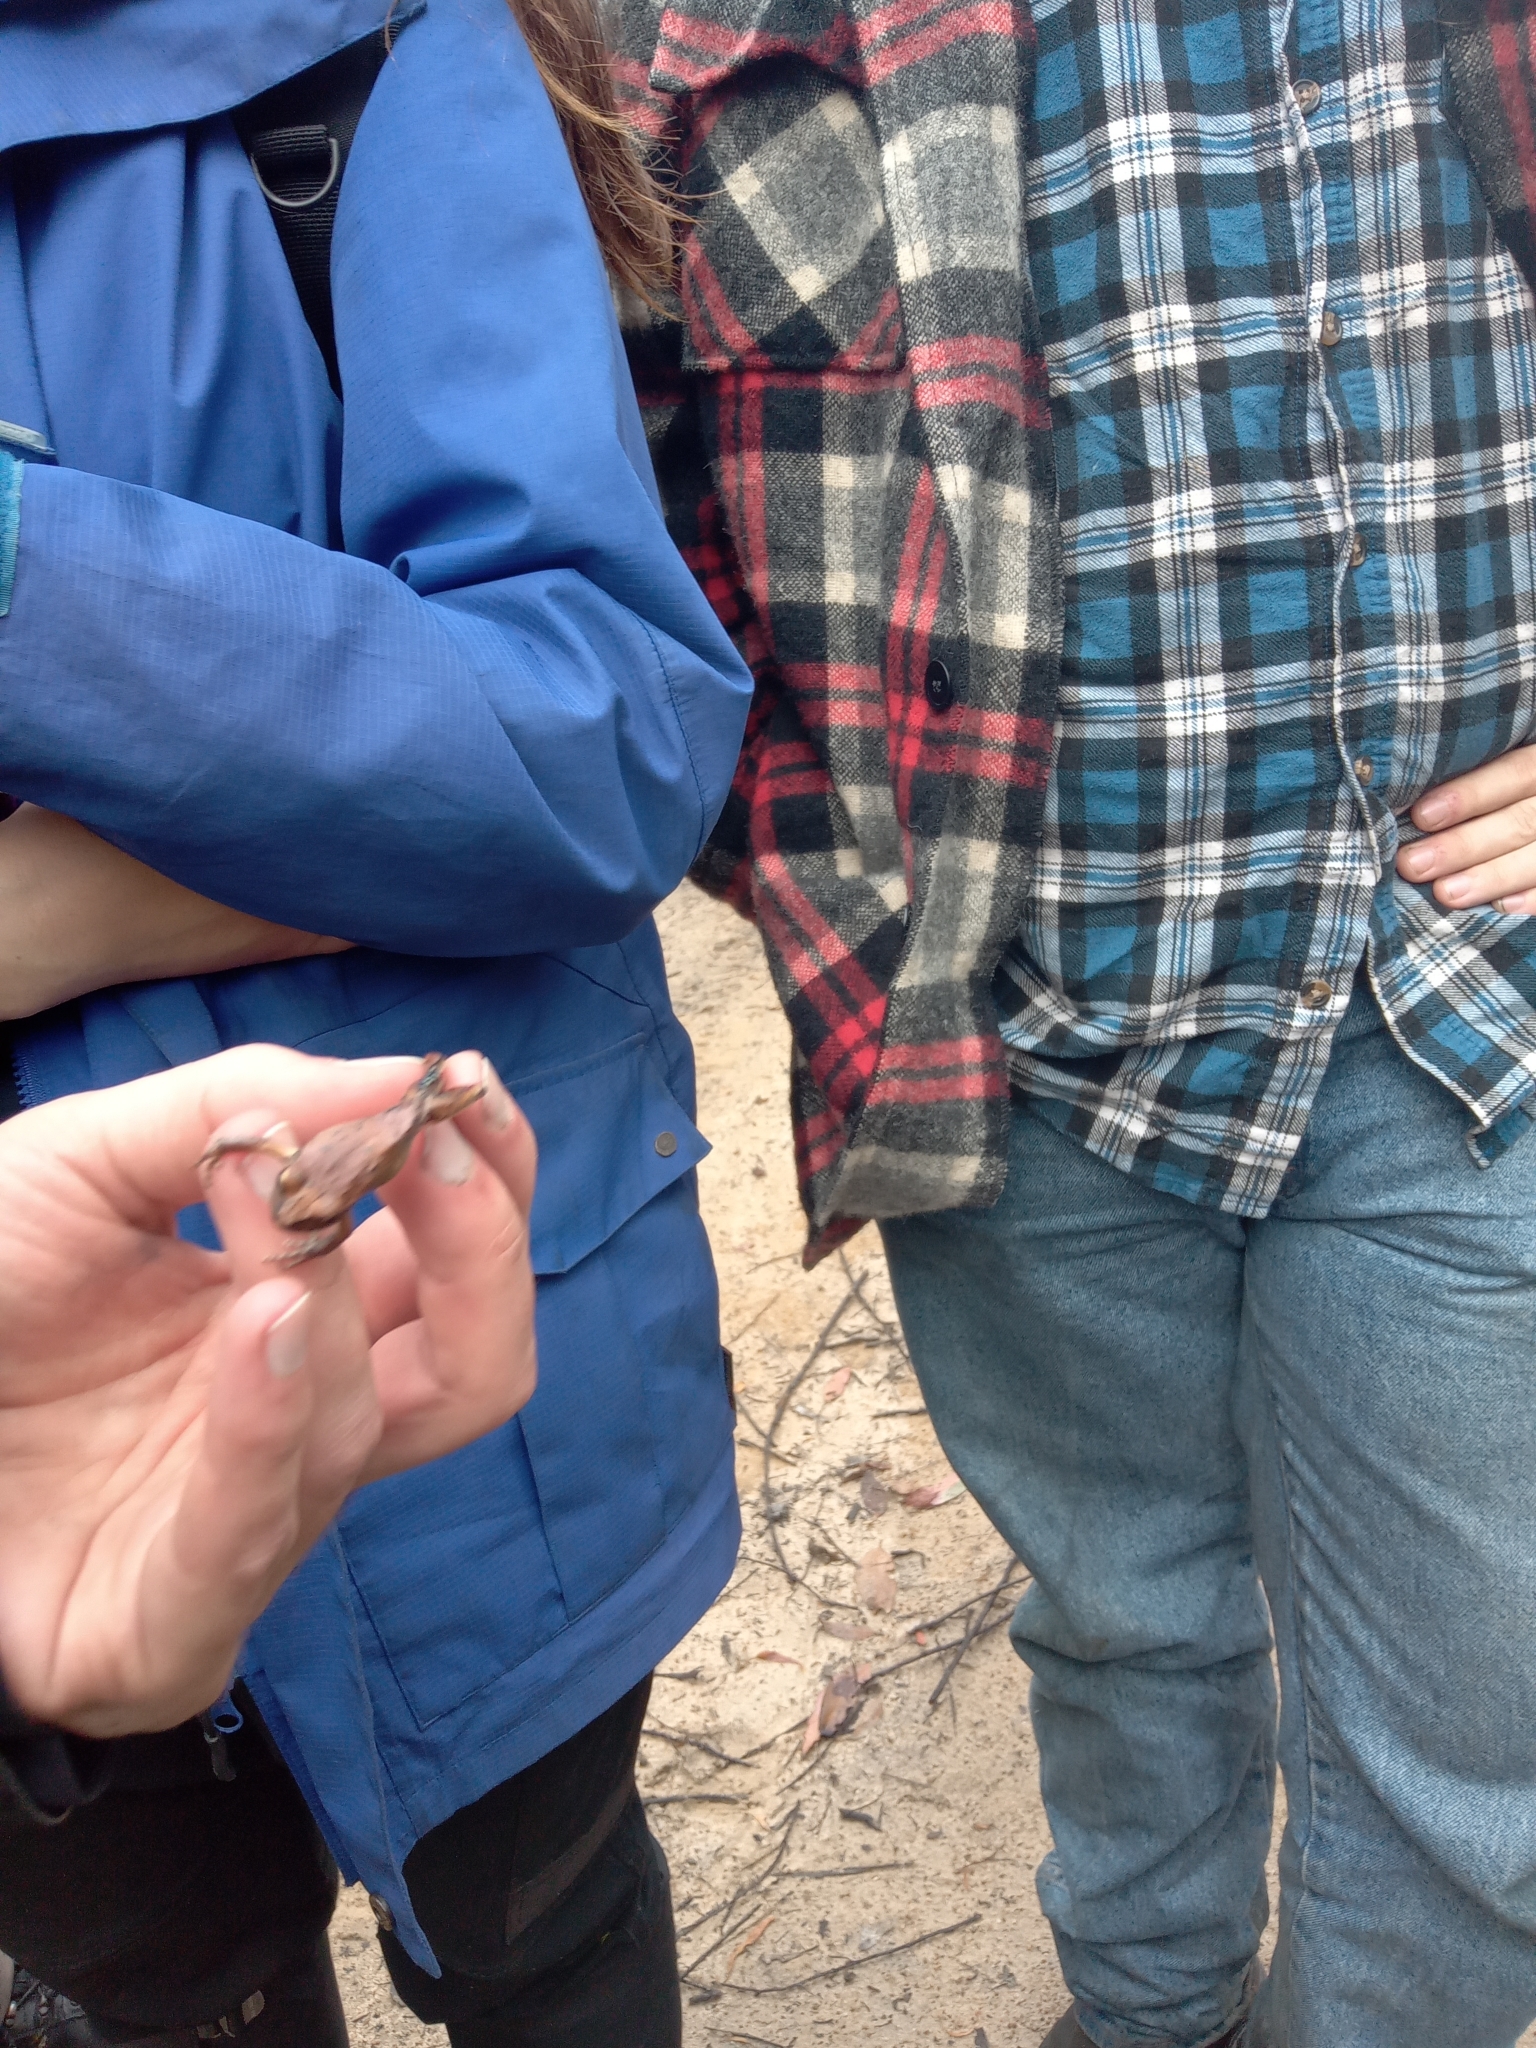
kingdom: Animalia
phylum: Chordata
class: Amphibia
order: Anura
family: Pelodryadidae
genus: Ranoidea
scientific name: Ranoidea lesueurii
